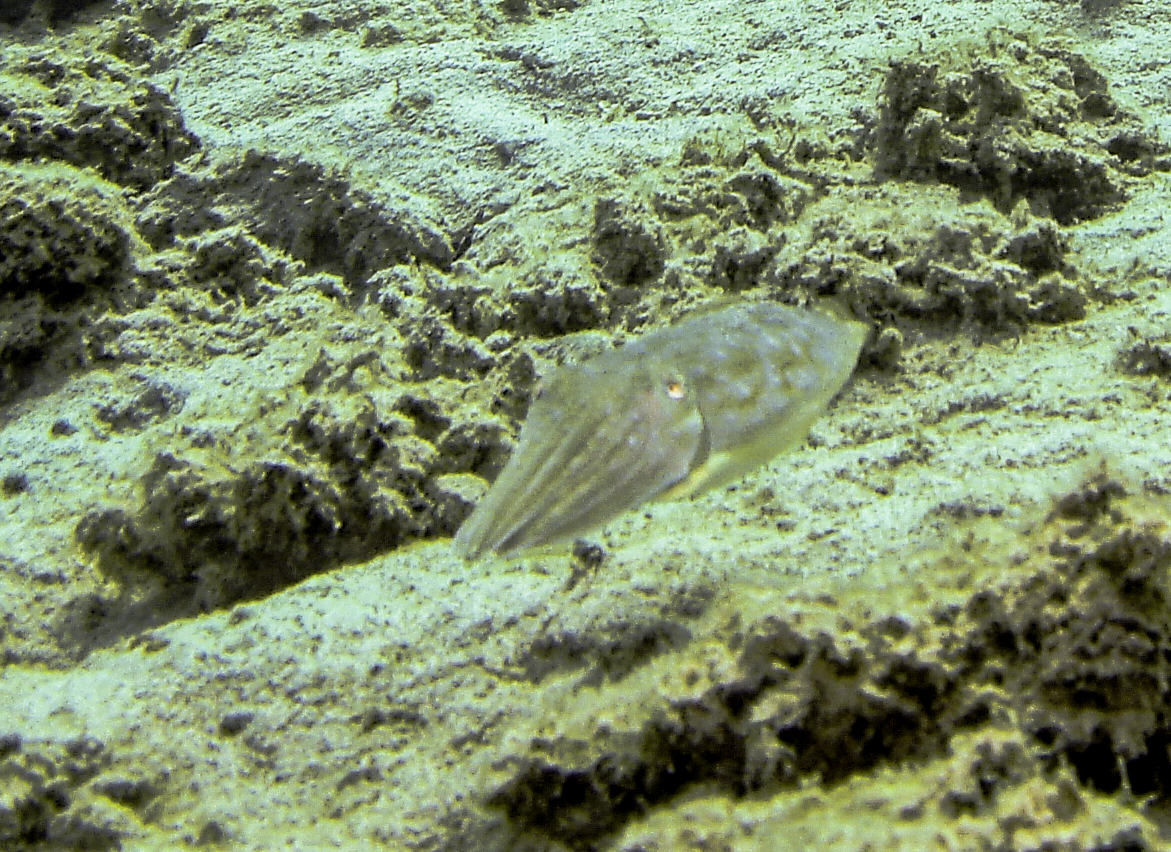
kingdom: Animalia
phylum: Mollusca
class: Cephalopoda
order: Sepiida
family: Sepiidae
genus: Sepia
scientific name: Sepia officinalis
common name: Common cuttlefish
